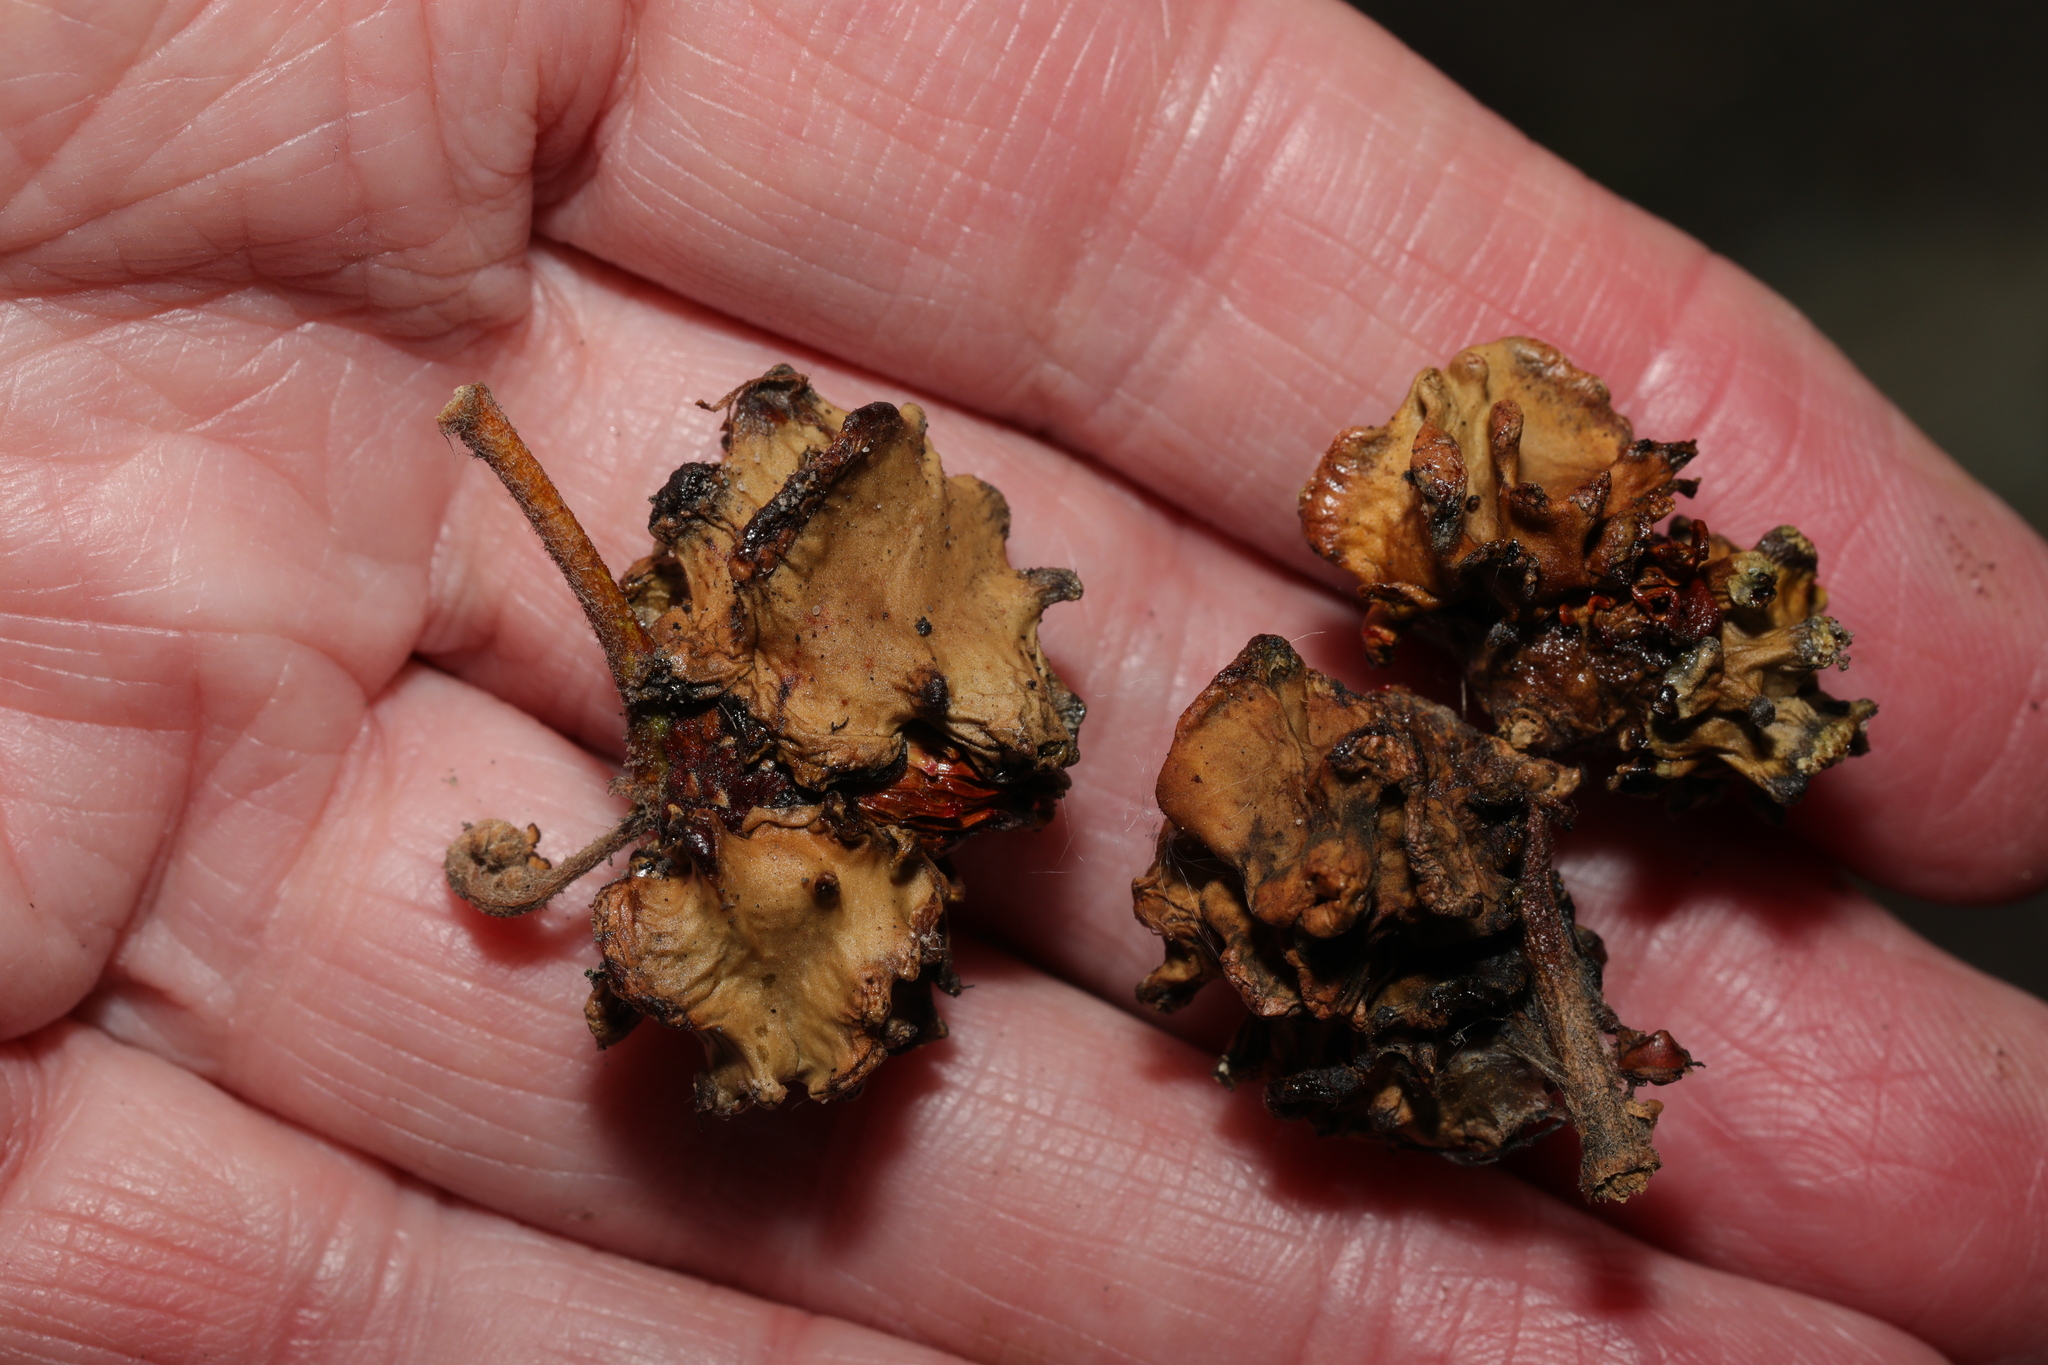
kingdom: Animalia
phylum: Arthropoda
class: Insecta
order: Hymenoptera
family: Cynipidae
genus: Andricus
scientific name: Andricus quercuscalicis
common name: Knopper gall
